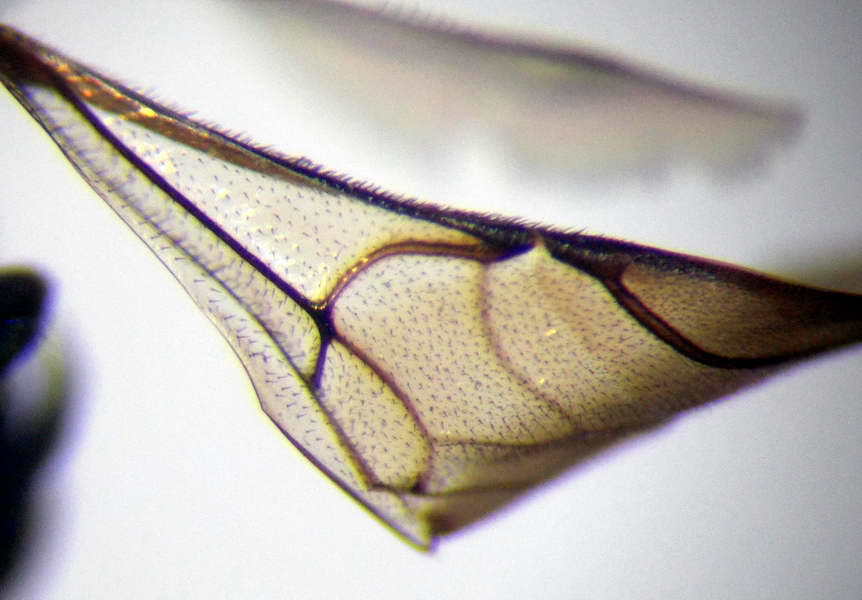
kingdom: Animalia
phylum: Arthropoda
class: Insecta
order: Hymenoptera
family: Chrysididae
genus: Hedychridium
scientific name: Hedychridium roseum
